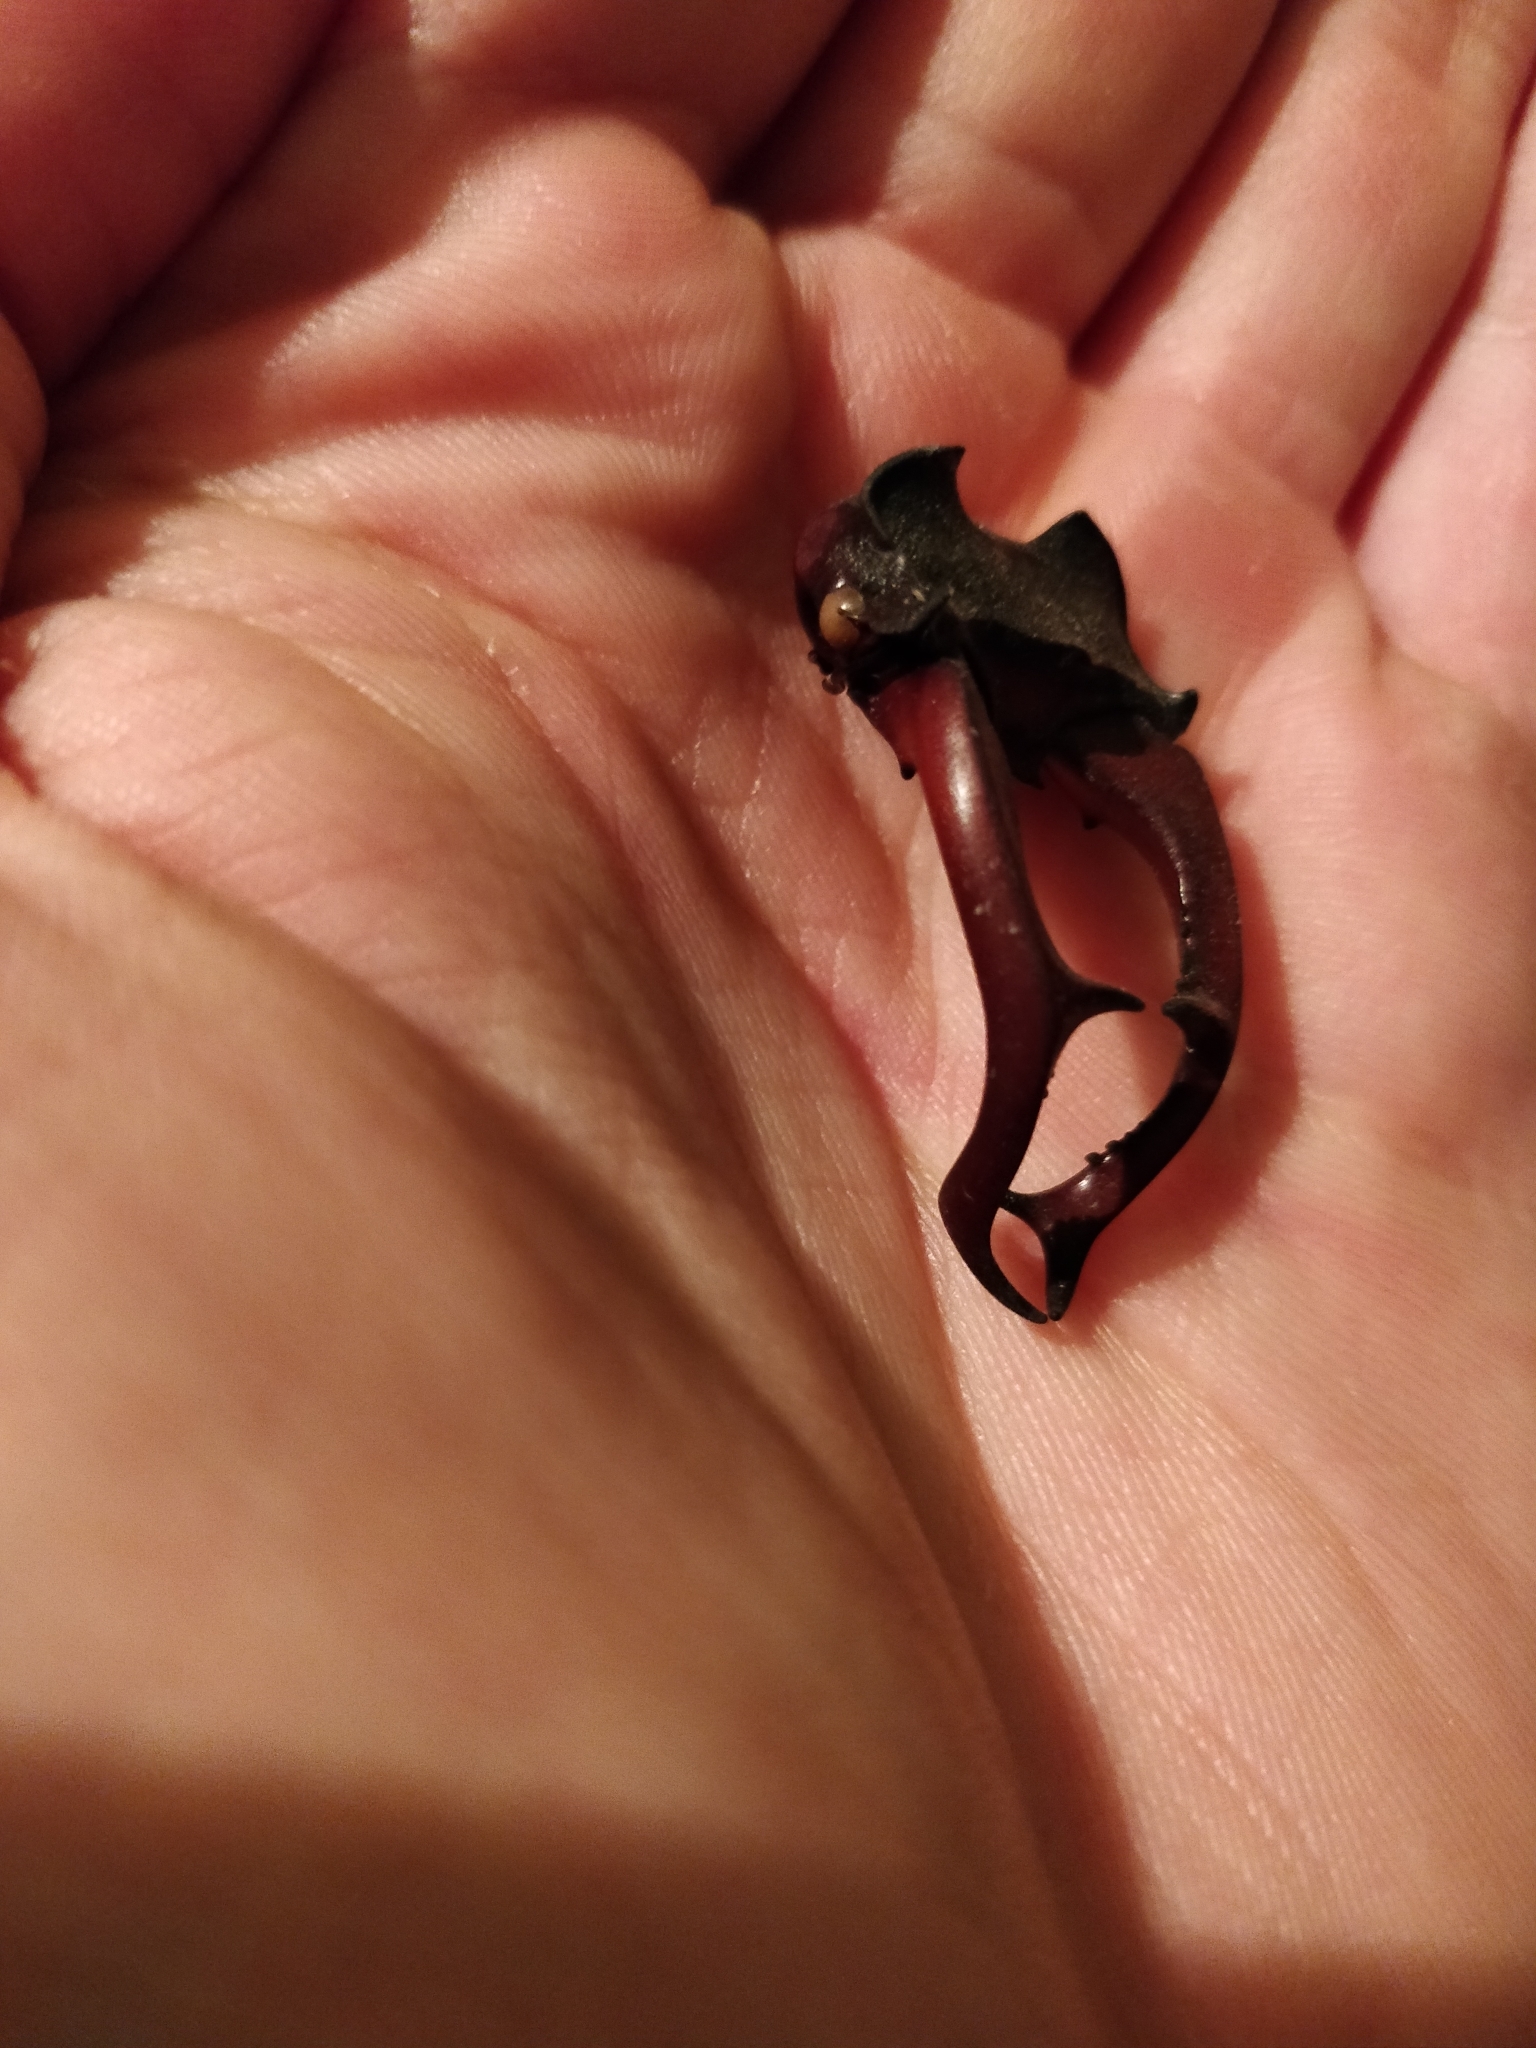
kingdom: Animalia
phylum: Arthropoda
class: Insecta
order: Coleoptera
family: Lucanidae
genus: Lucanus
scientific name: Lucanus cervus
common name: Stag beetle
